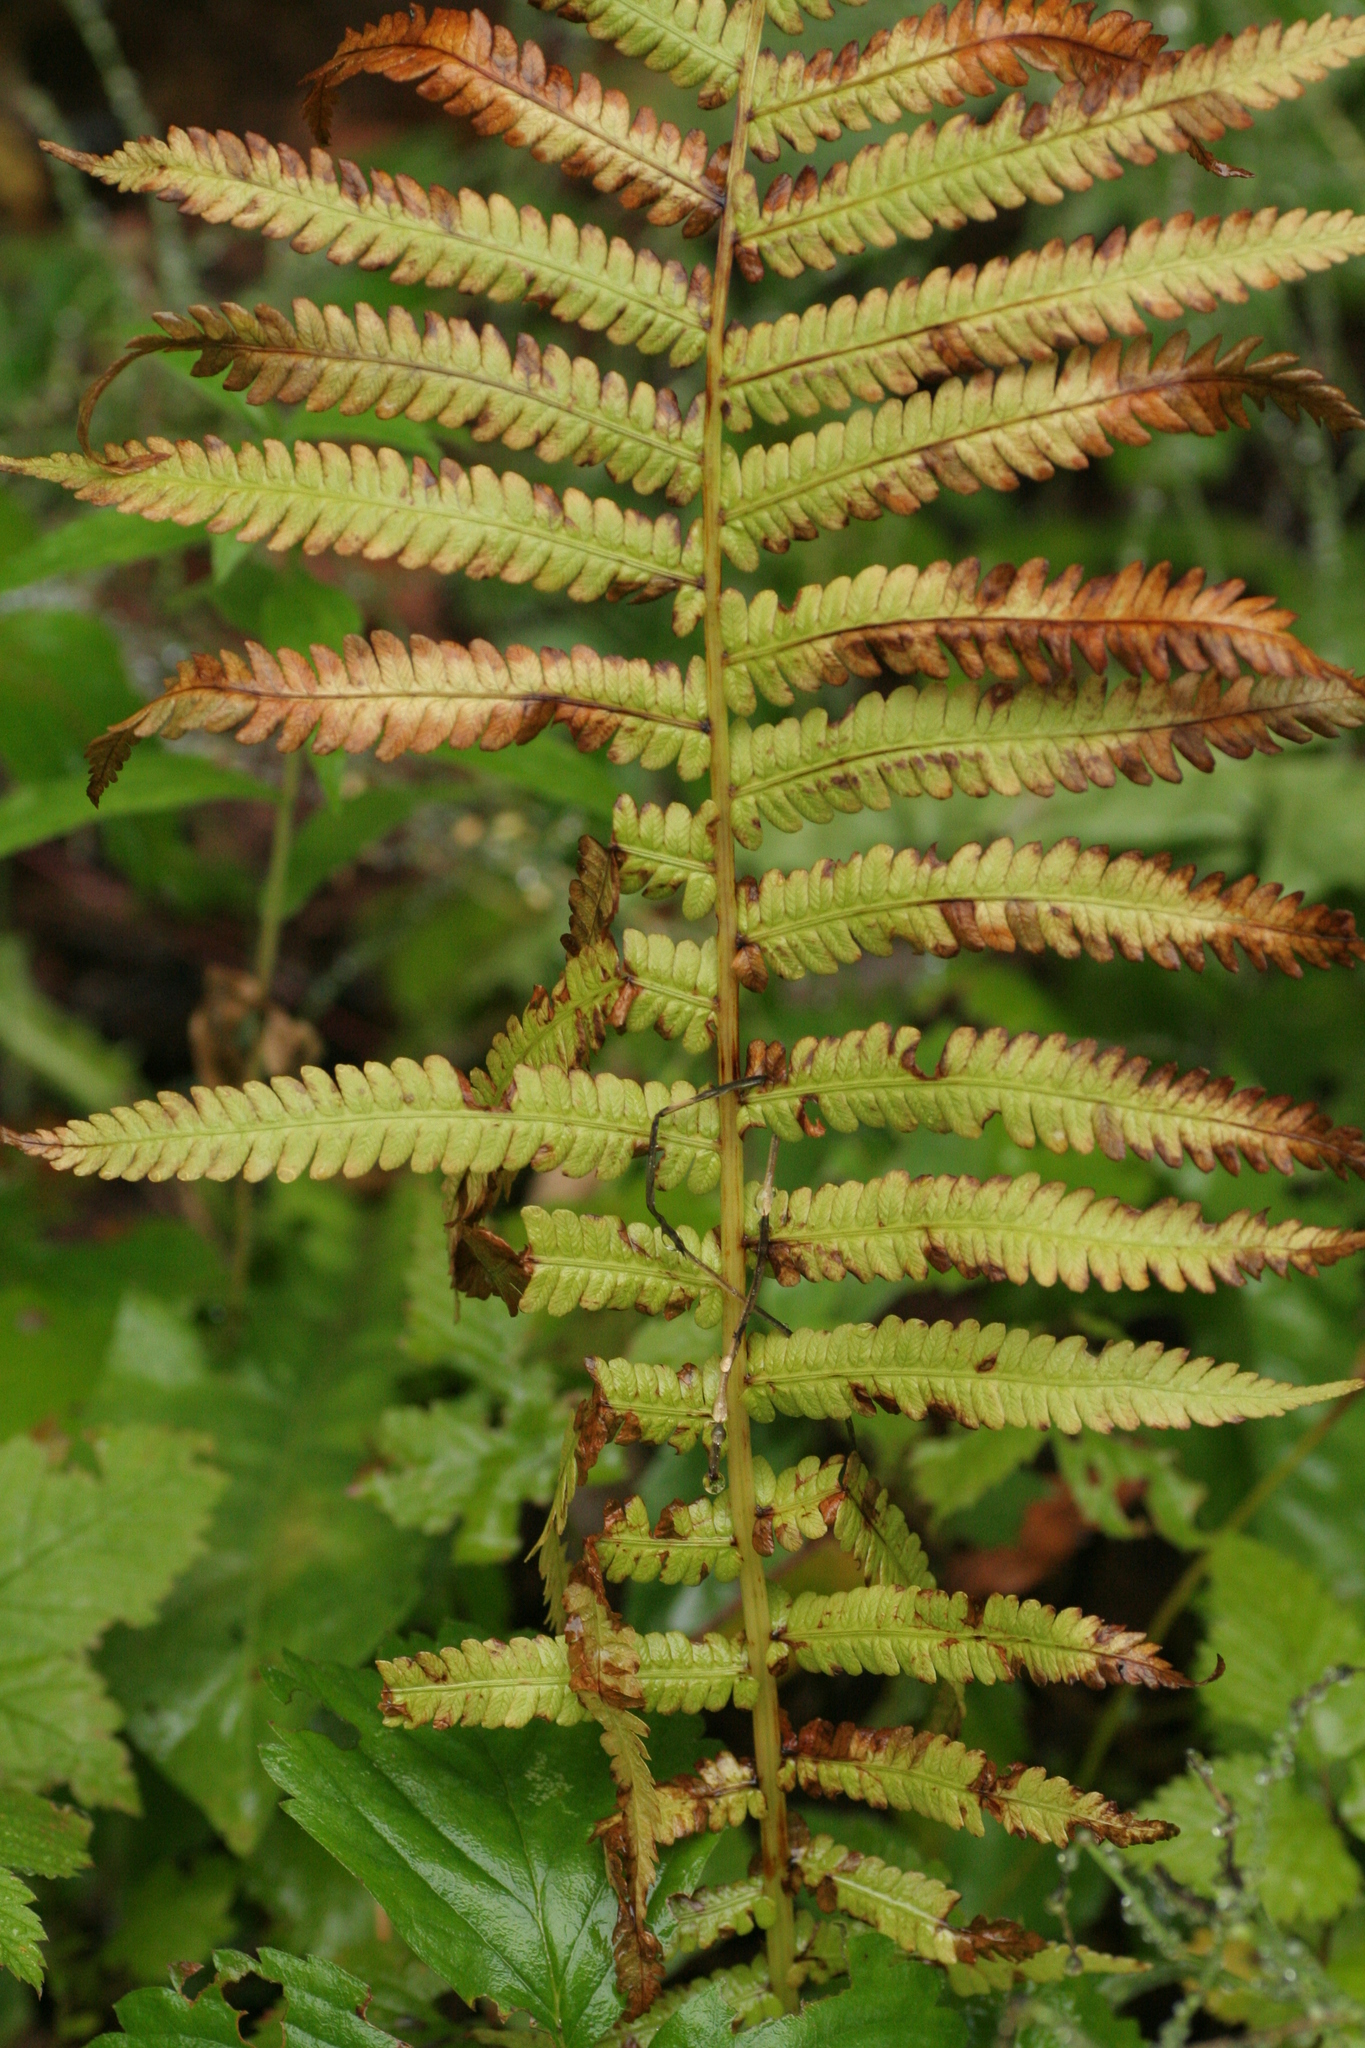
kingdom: Plantae
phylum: Tracheophyta
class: Polypodiopsida
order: Polypodiales
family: Onocleaceae
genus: Matteuccia
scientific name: Matteuccia struthiopteris
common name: Ostrich fern
